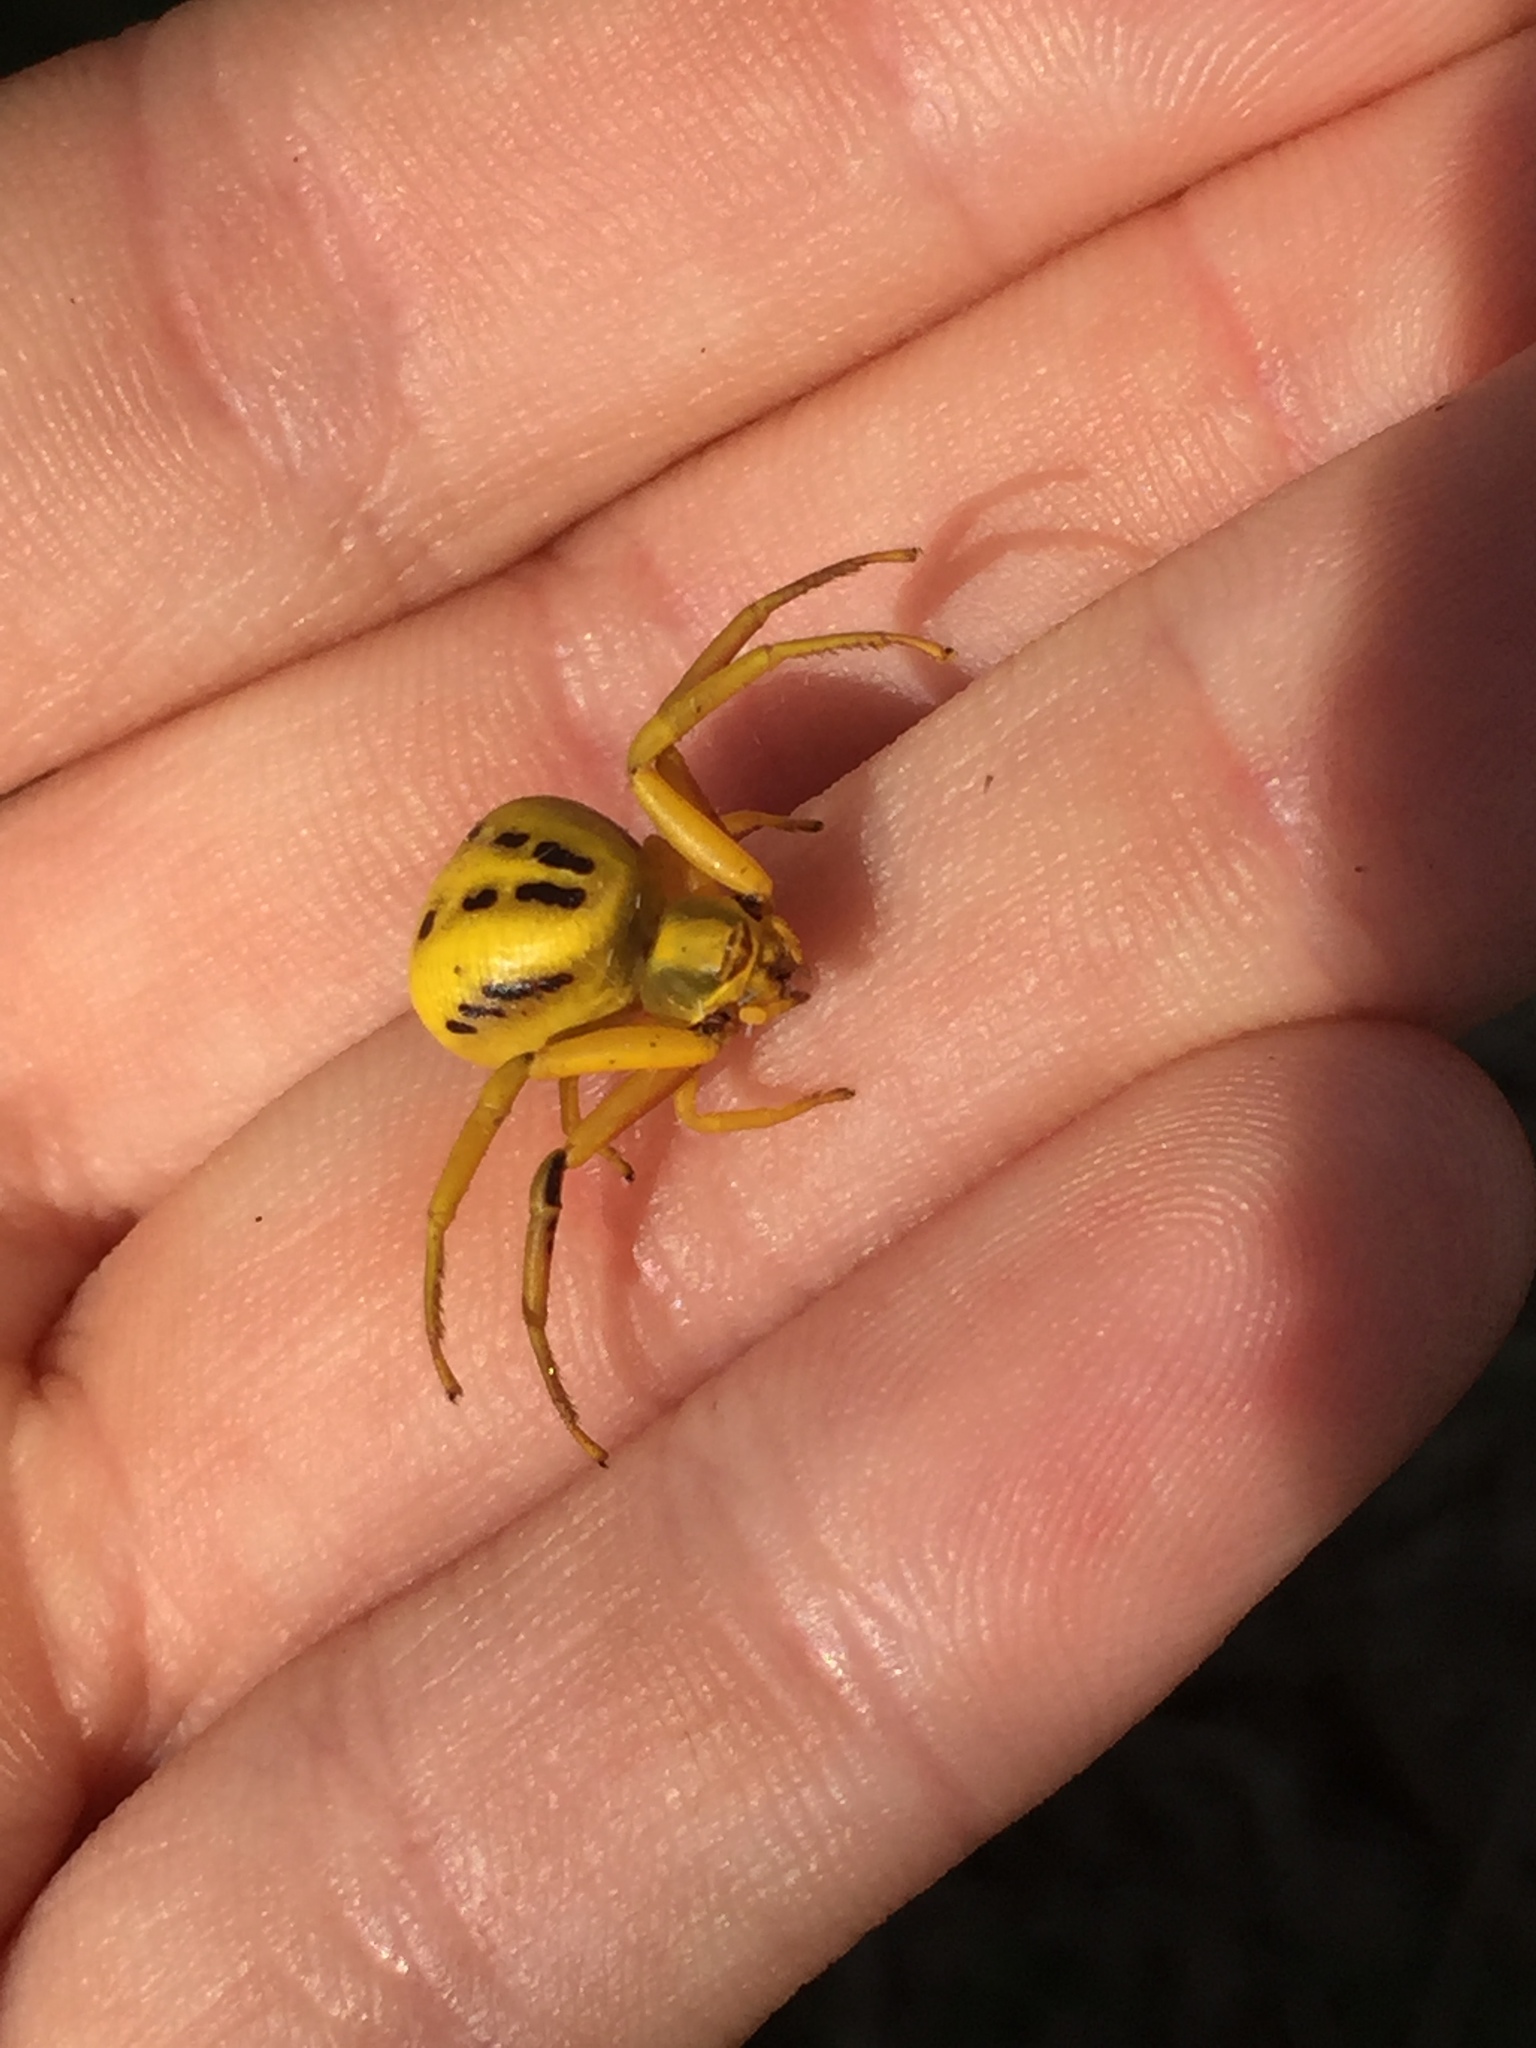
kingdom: Animalia
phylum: Arthropoda
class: Arachnida
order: Araneae
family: Thomisidae
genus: Misumenoides
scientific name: Misumenoides formosipes
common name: White-banded crab spider
